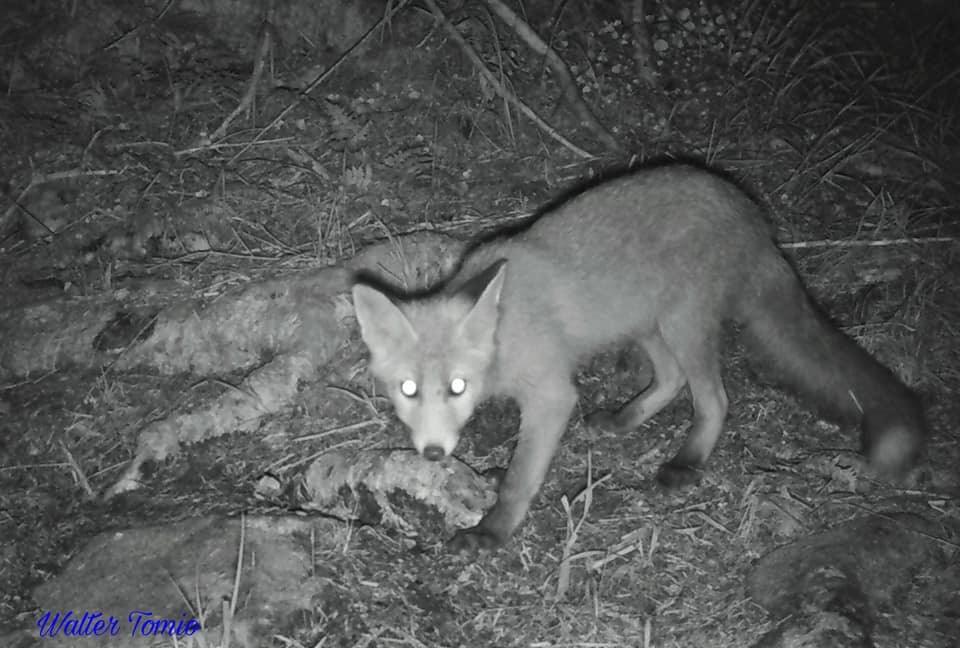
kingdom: Animalia
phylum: Chordata
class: Mammalia
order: Carnivora
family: Canidae
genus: Vulpes
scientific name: Vulpes vulpes
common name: Red fox
